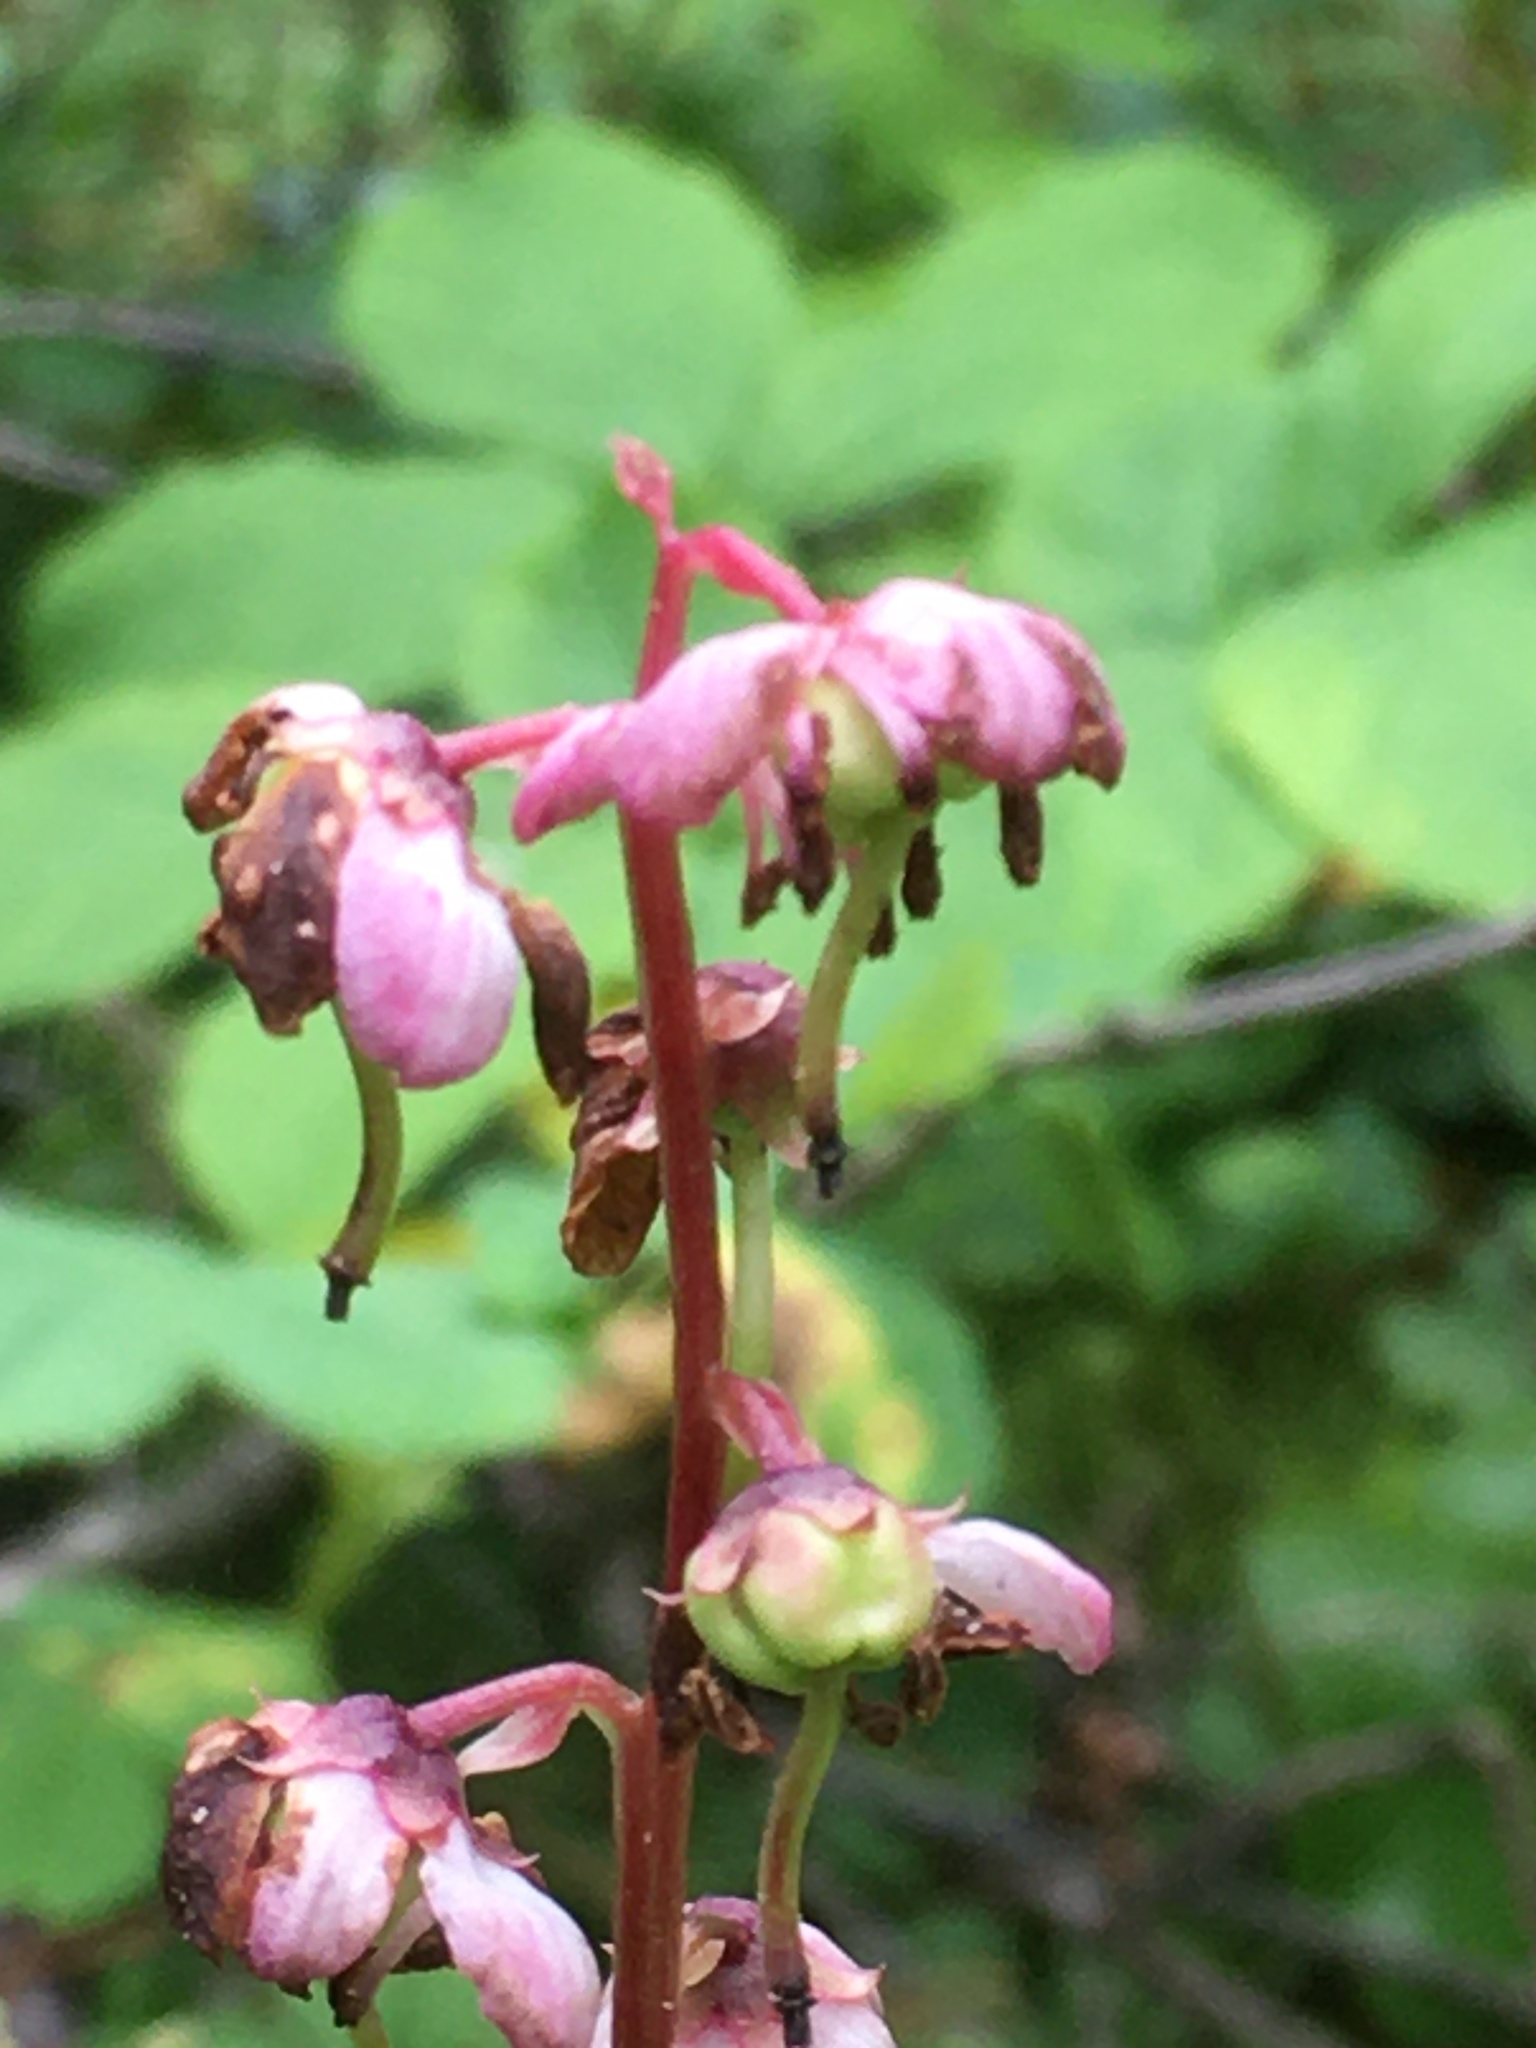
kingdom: Plantae
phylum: Tracheophyta
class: Magnoliopsida
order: Ericales
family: Ericaceae
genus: Pyrola
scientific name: Pyrola asarifolia
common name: Bog wintergreen
